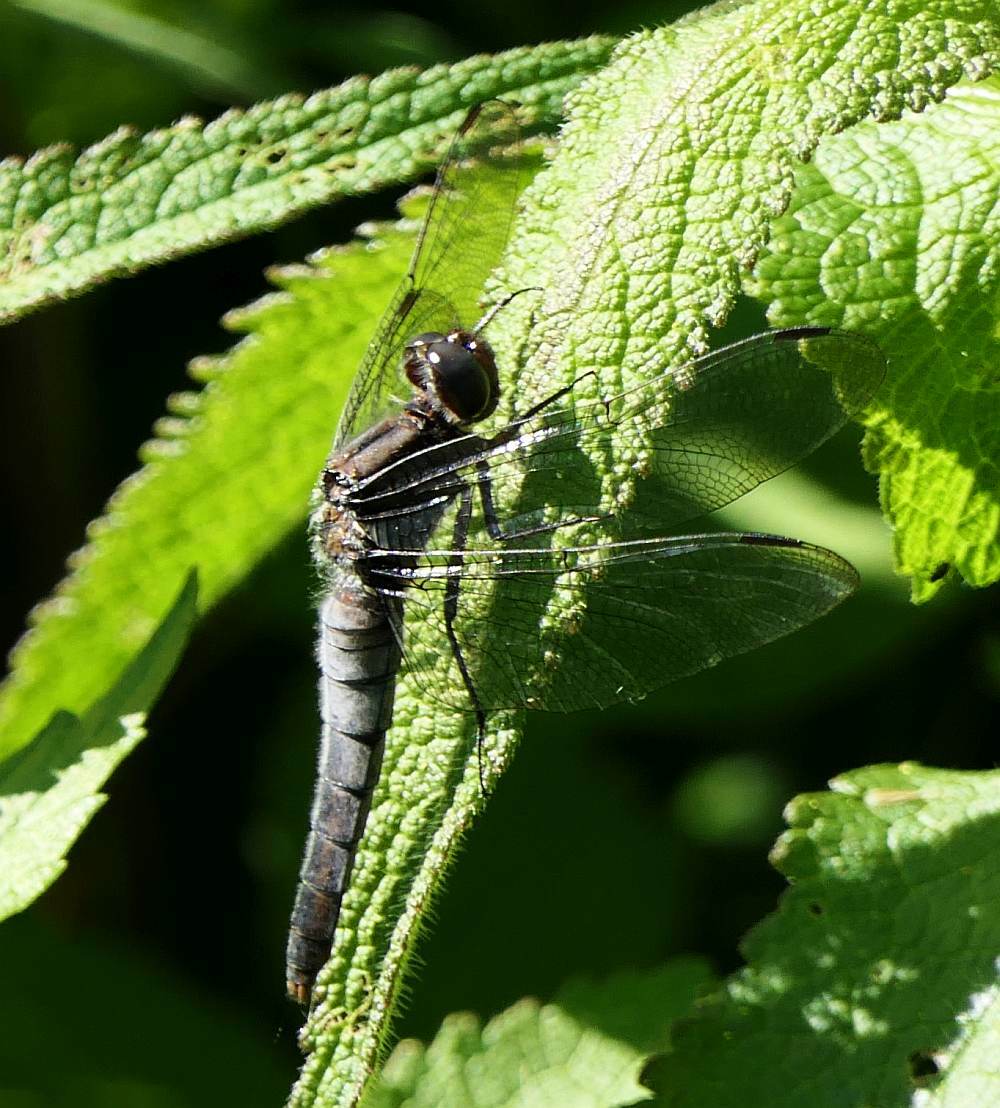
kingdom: Animalia
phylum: Arthropoda
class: Insecta
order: Odonata
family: Libellulidae
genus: Ladona
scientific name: Ladona julia
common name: Chalk-fronted corporal
